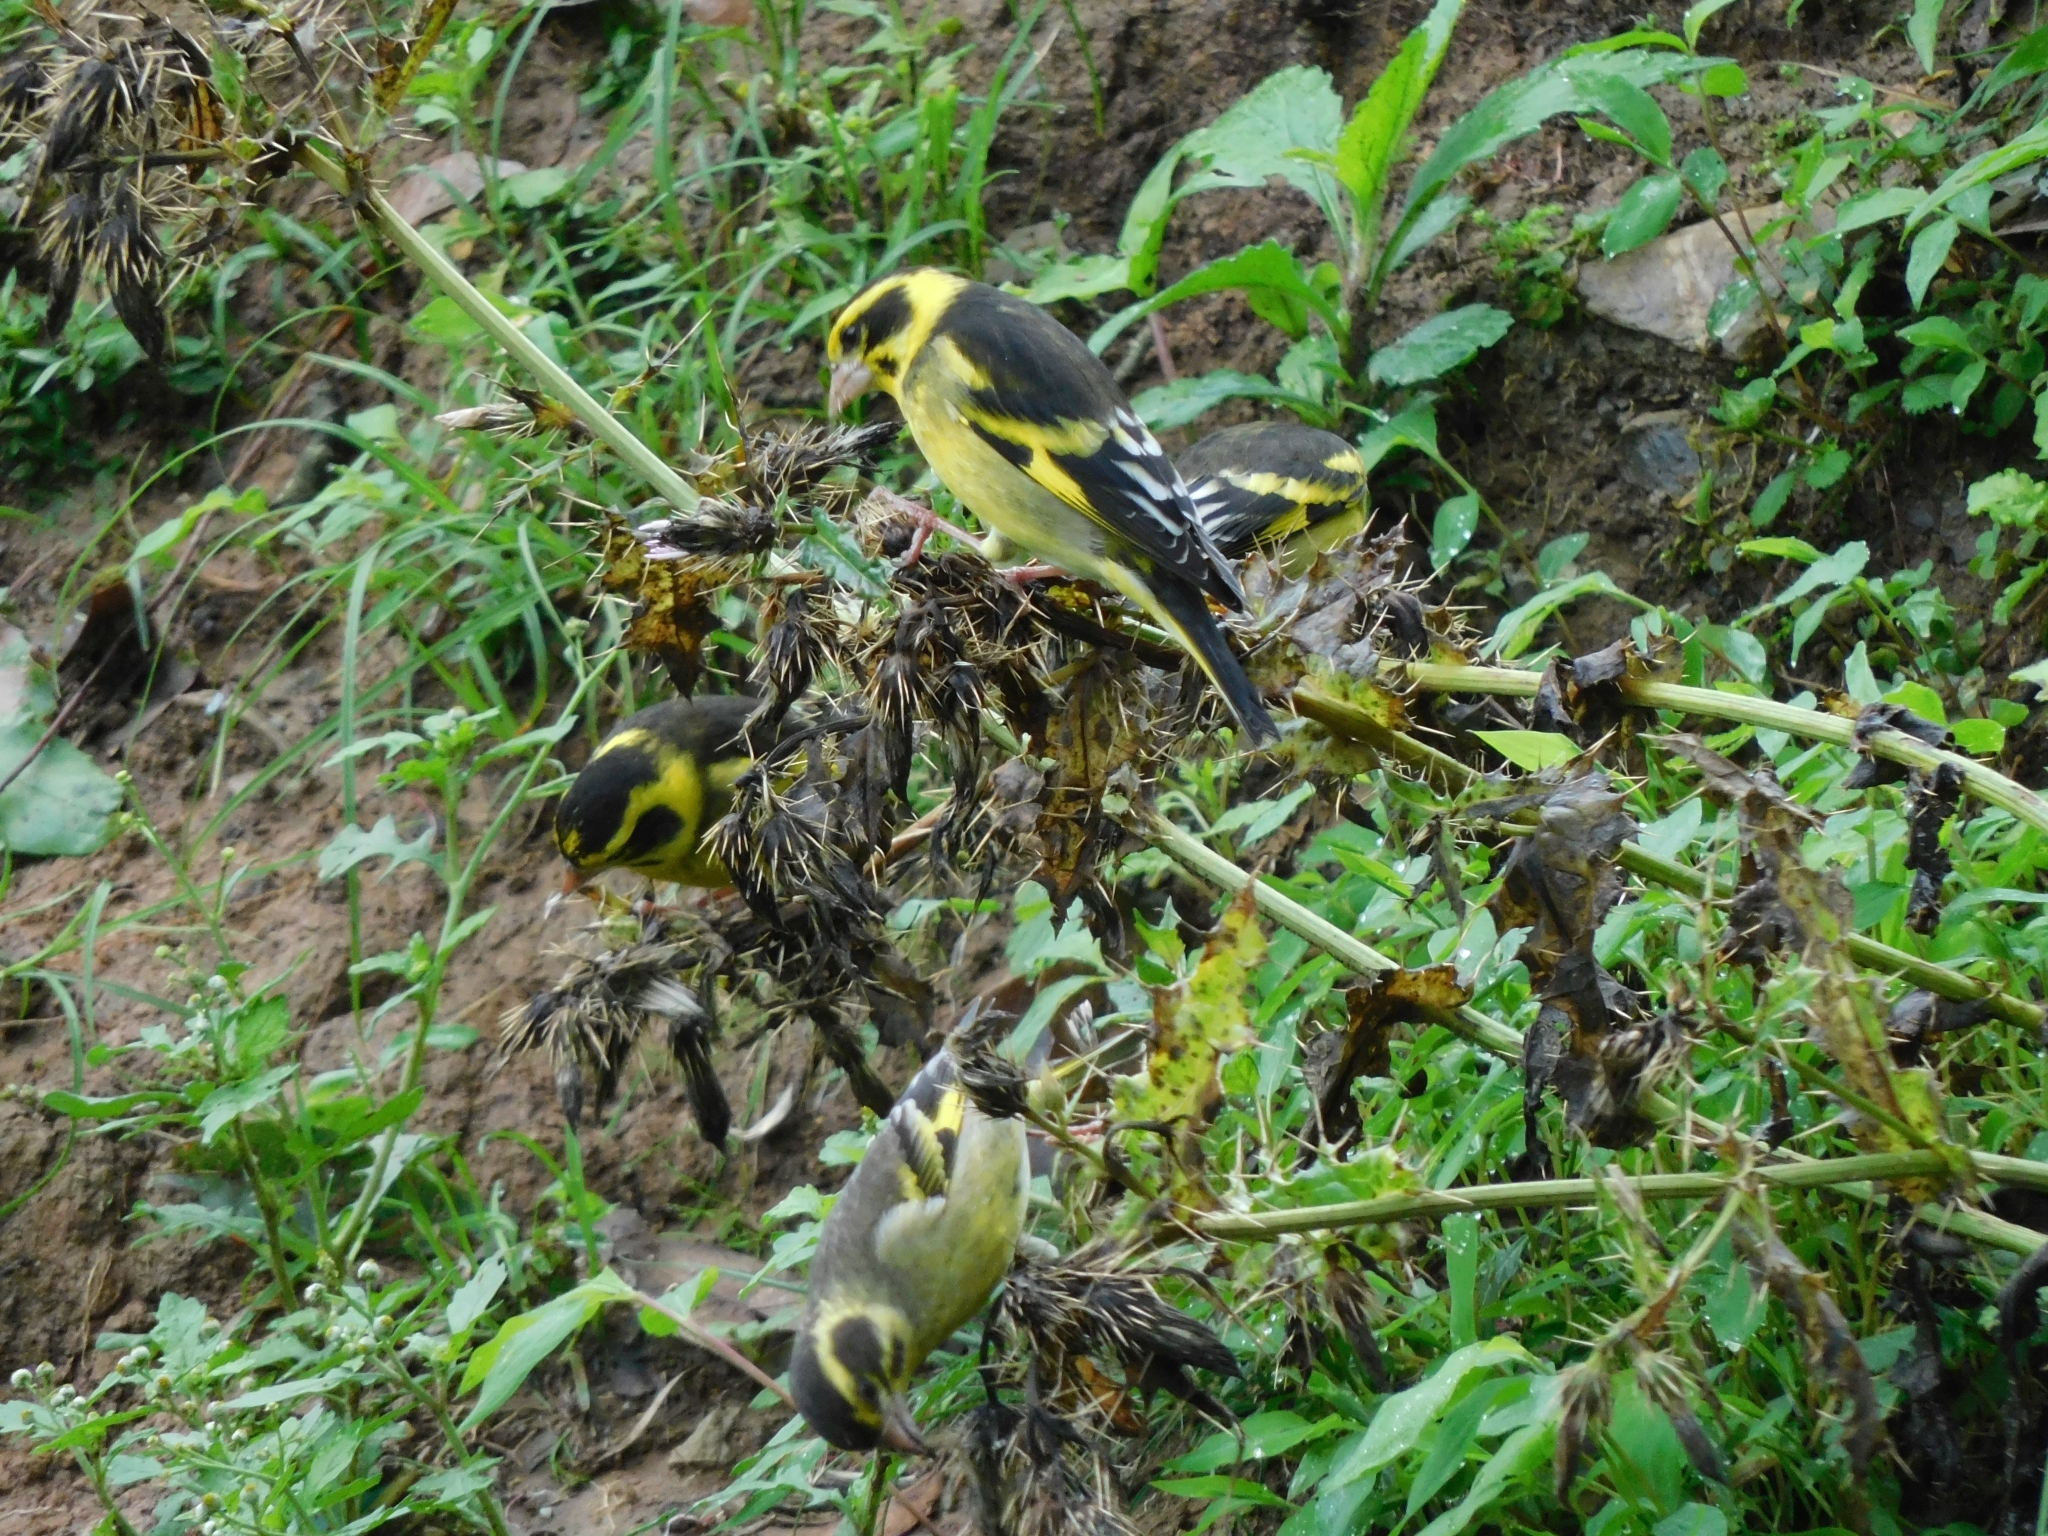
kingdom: Animalia
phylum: Chordata
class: Aves
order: Passeriformes
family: Fringillidae
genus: Chloris
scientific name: Chloris spinoides
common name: Yellow-breasted greenfinch
